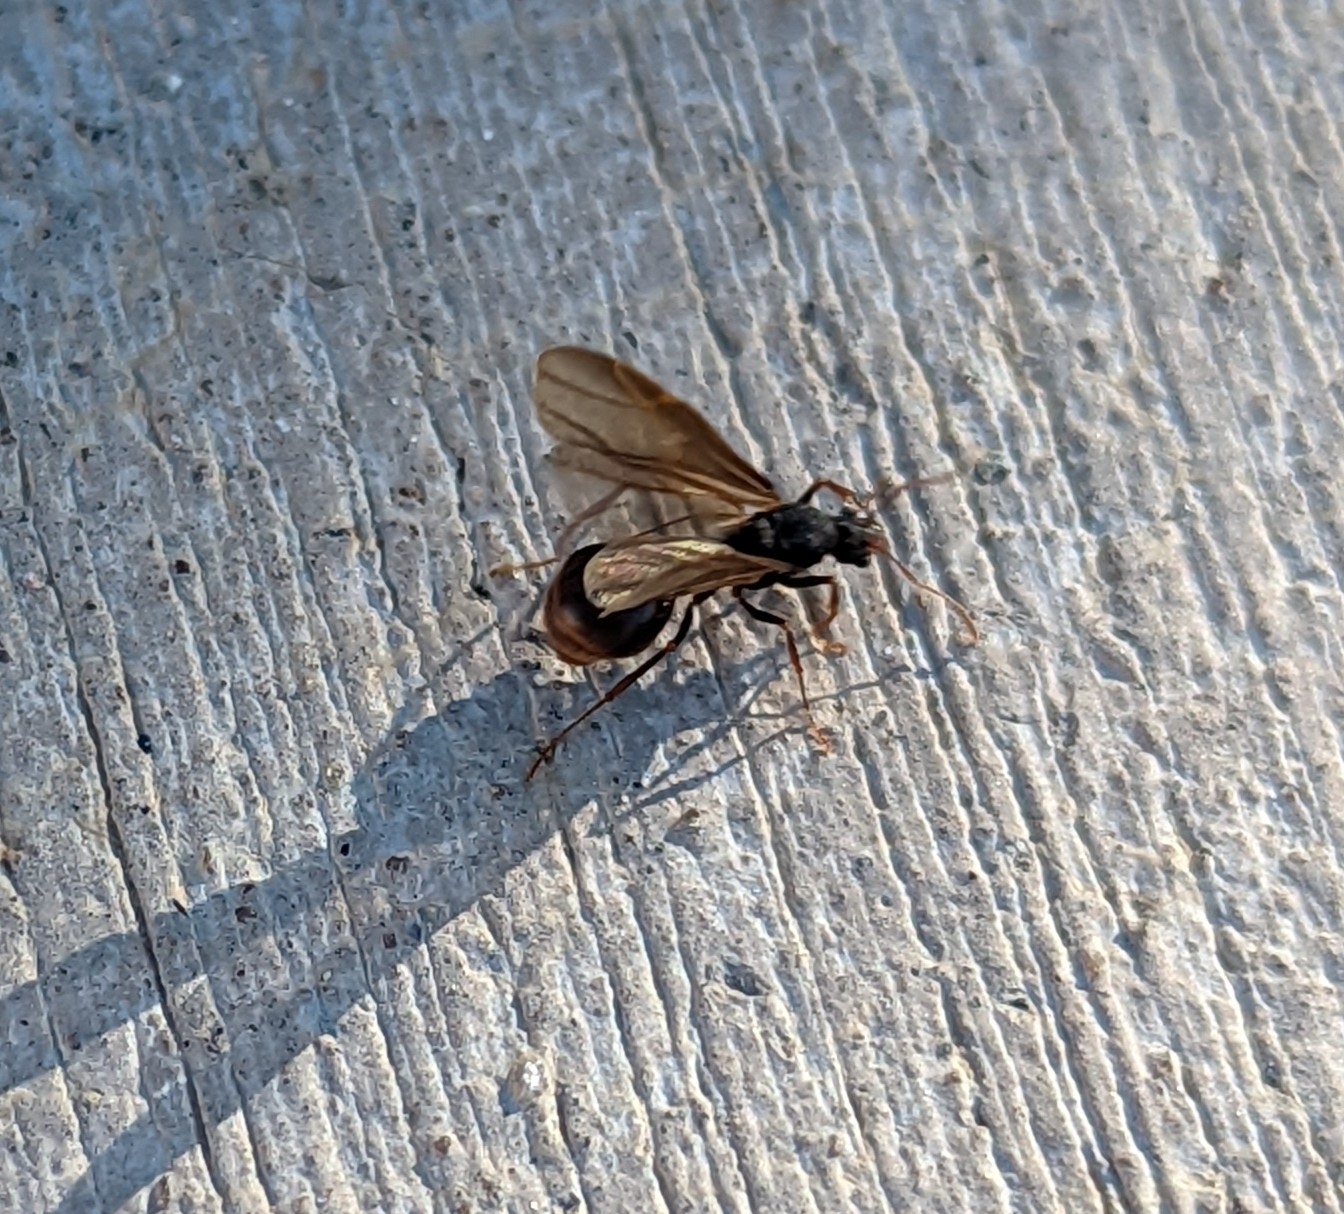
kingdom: Animalia
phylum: Arthropoda
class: Insecta
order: Hymenoptera
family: Formicidae
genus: Acromyrmex
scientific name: Acromyrmex versicolor
